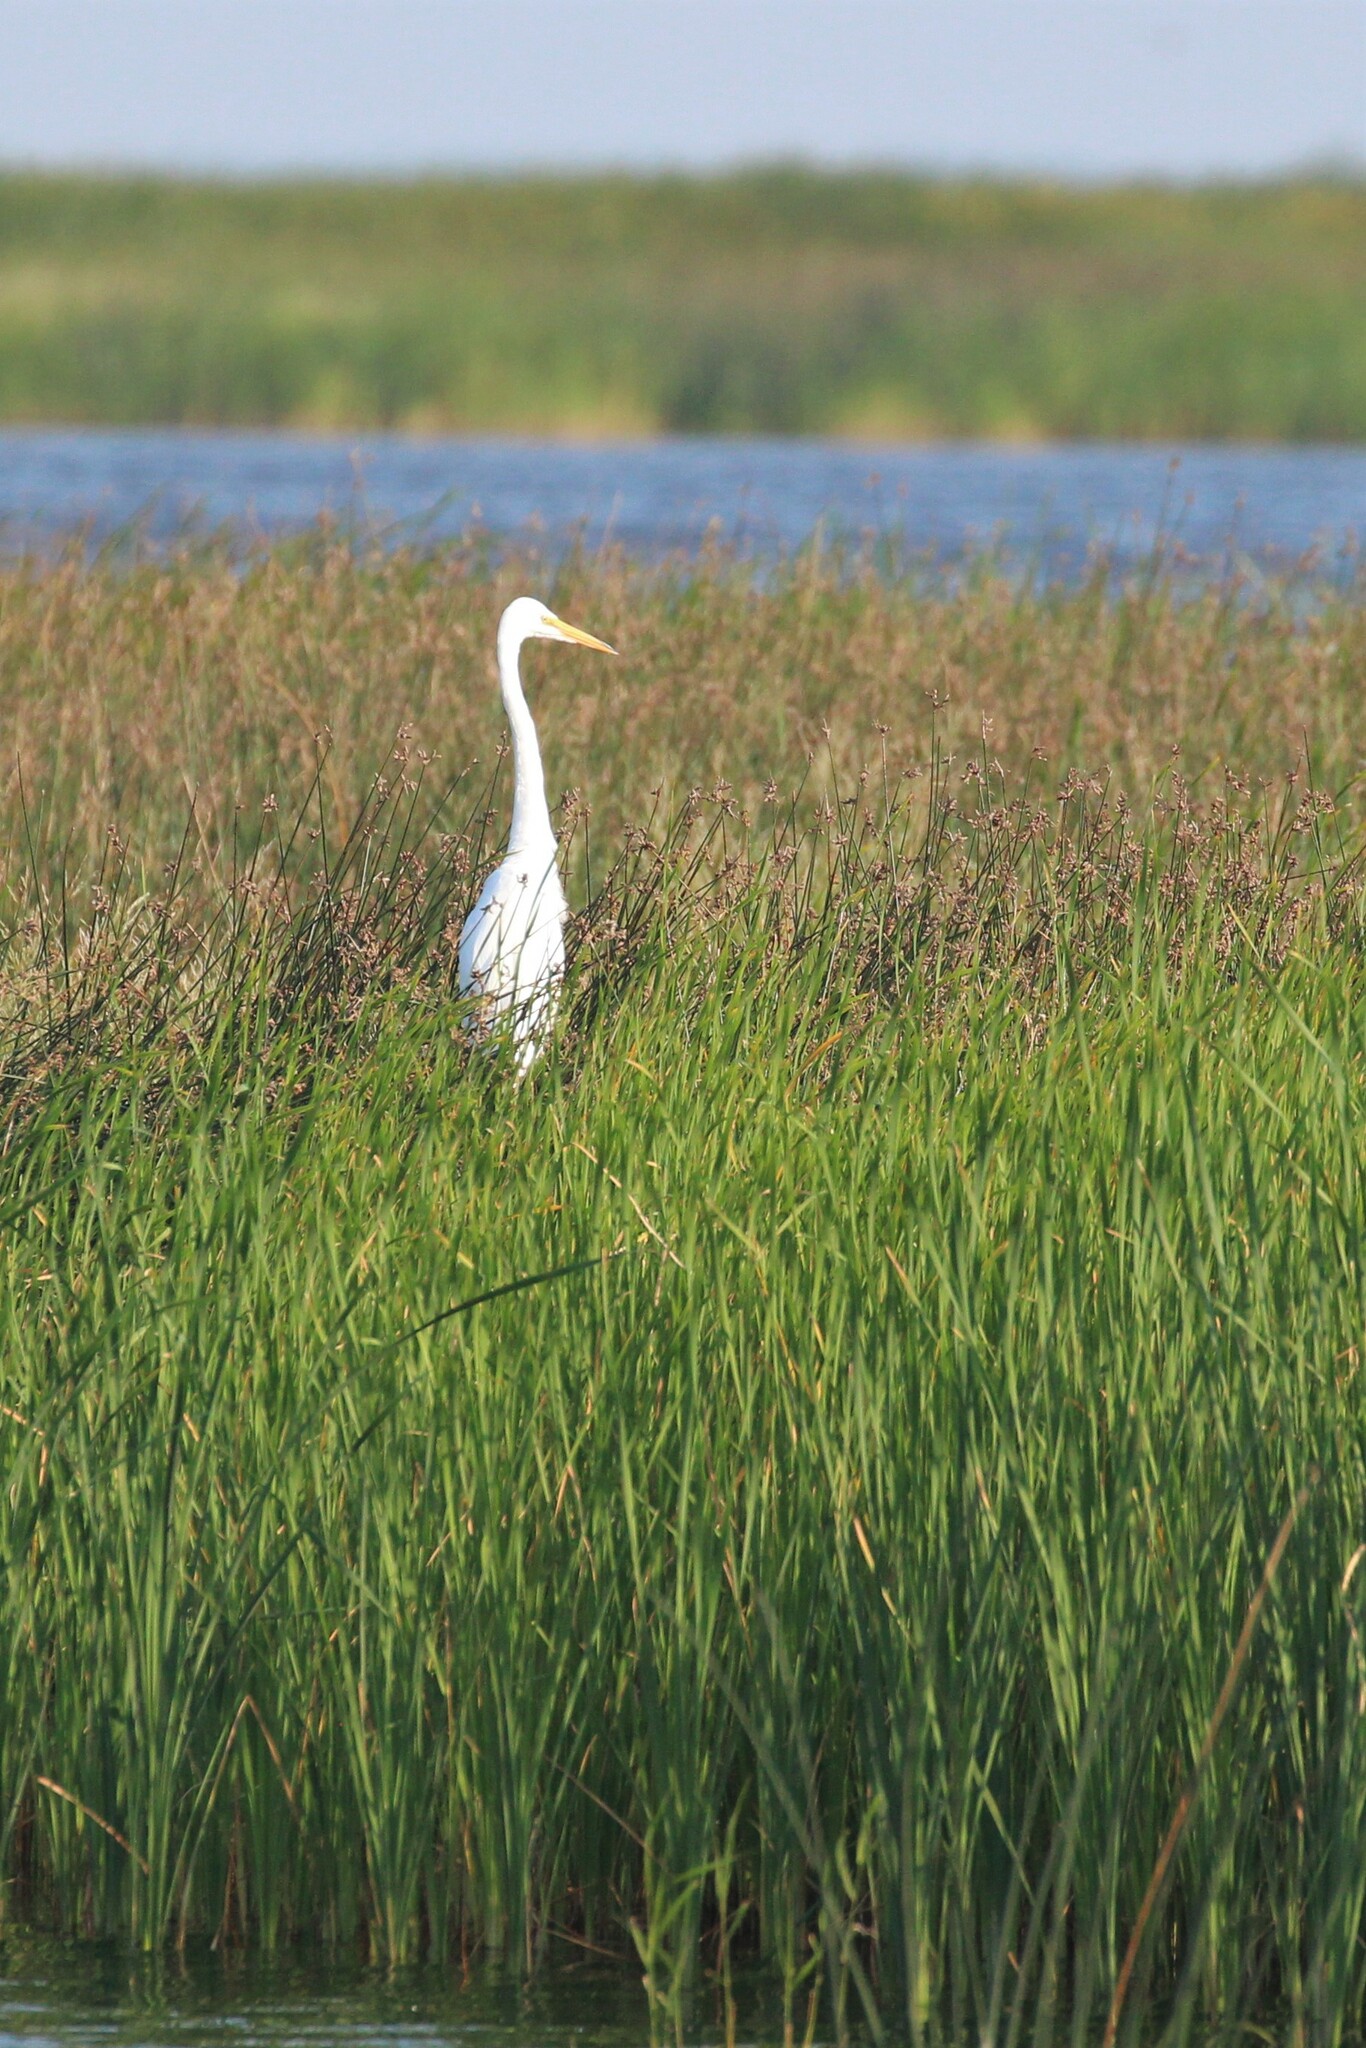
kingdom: Animalia
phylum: Chordata
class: Aves
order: Pelecaniformes
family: Ardeidae
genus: Ardea
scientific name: Ardea alba
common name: Great egret
